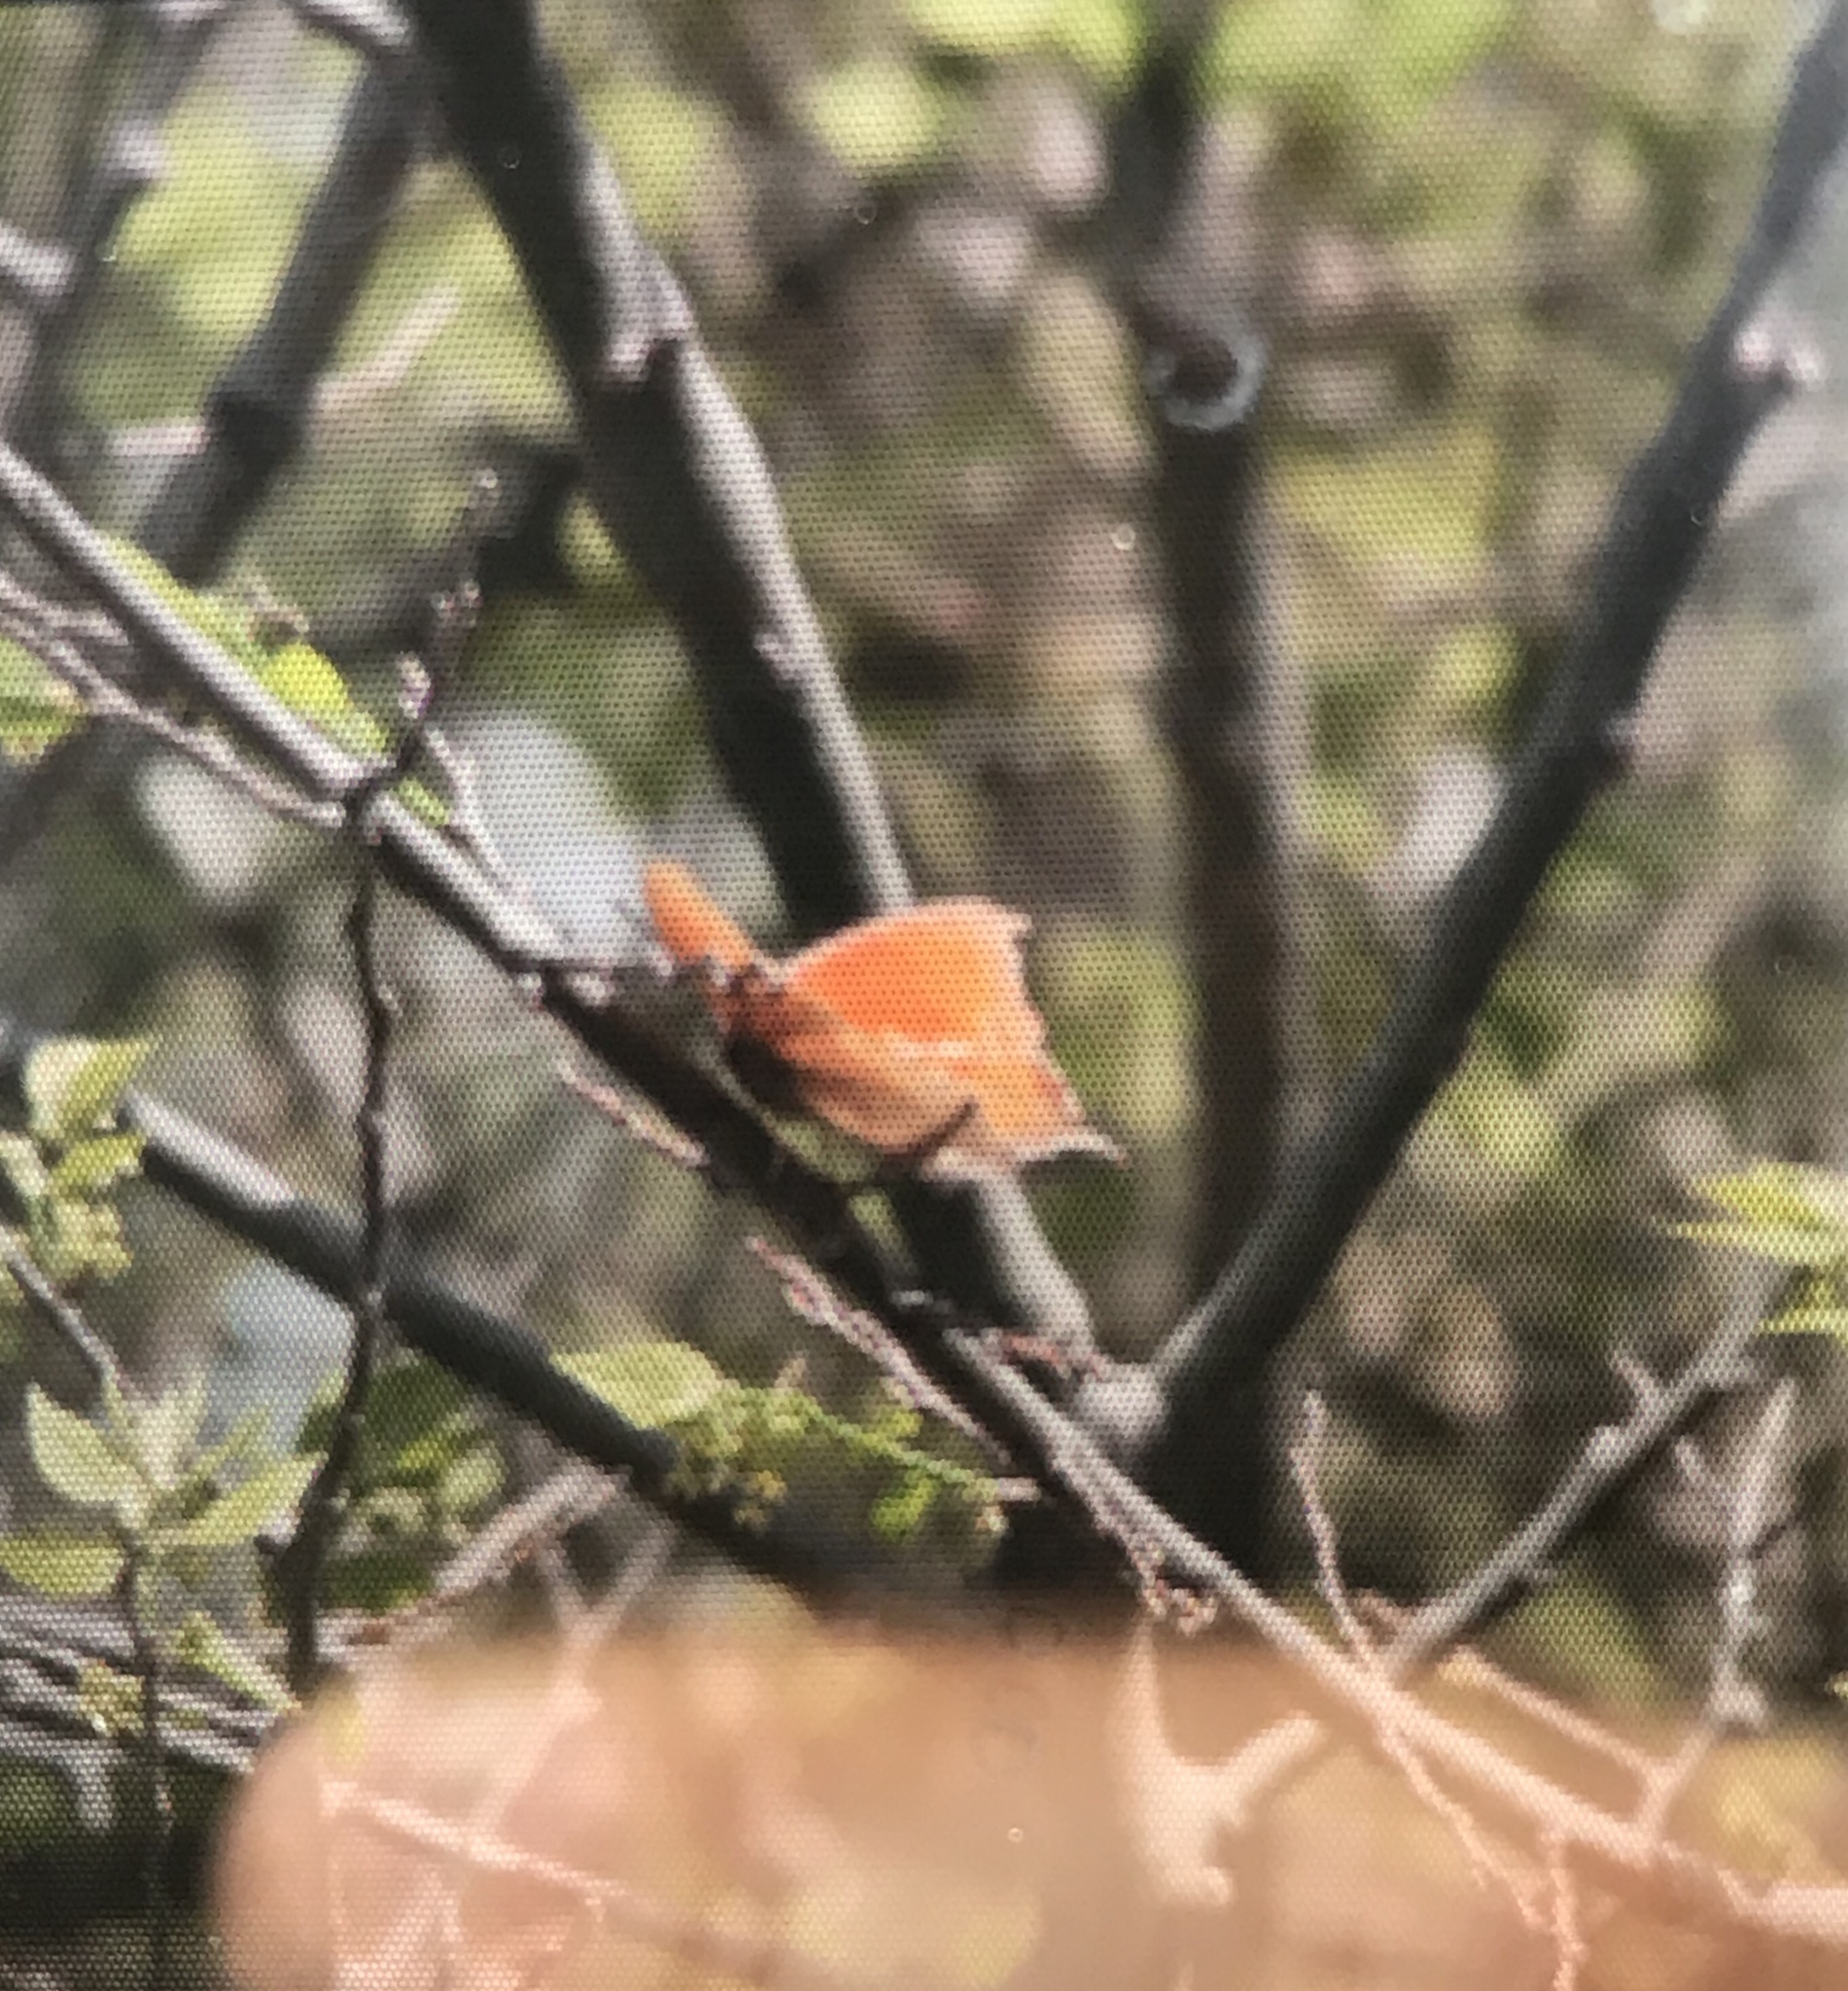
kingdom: Animalia
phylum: Arthropoda
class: Insecta
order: Lepidoptera
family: Nymphalidae
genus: Anaea
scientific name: Anaea andria
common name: Goatweed leafwing
